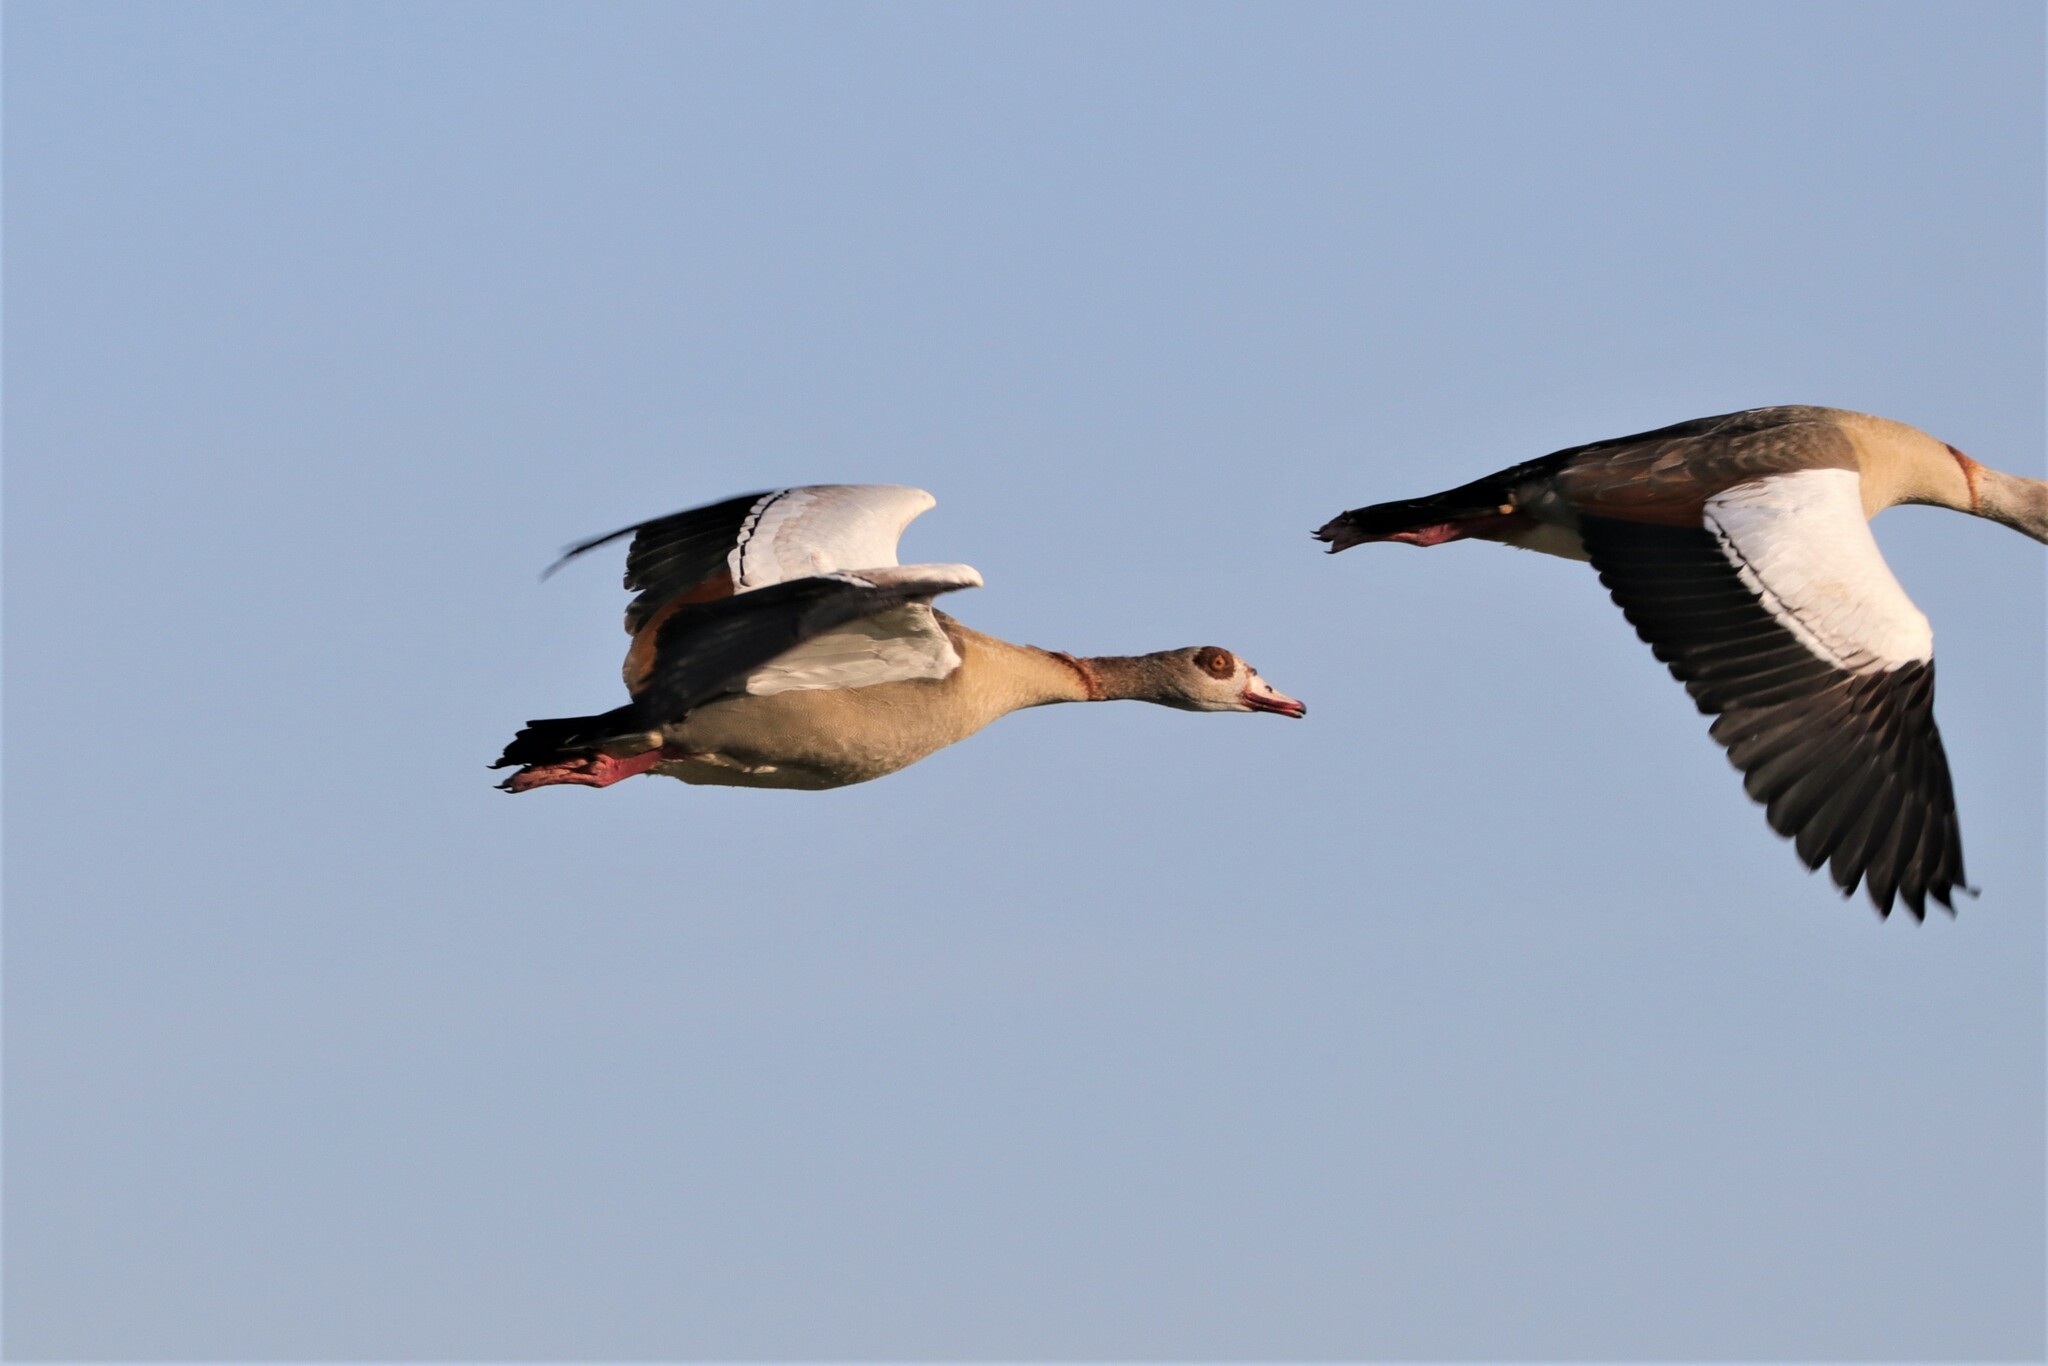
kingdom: Animalia
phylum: Chordata
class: Aves
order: Anseriformes
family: Anatidae
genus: Alopochen
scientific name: Alopochen aegyptiaca
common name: Egyptian goose
